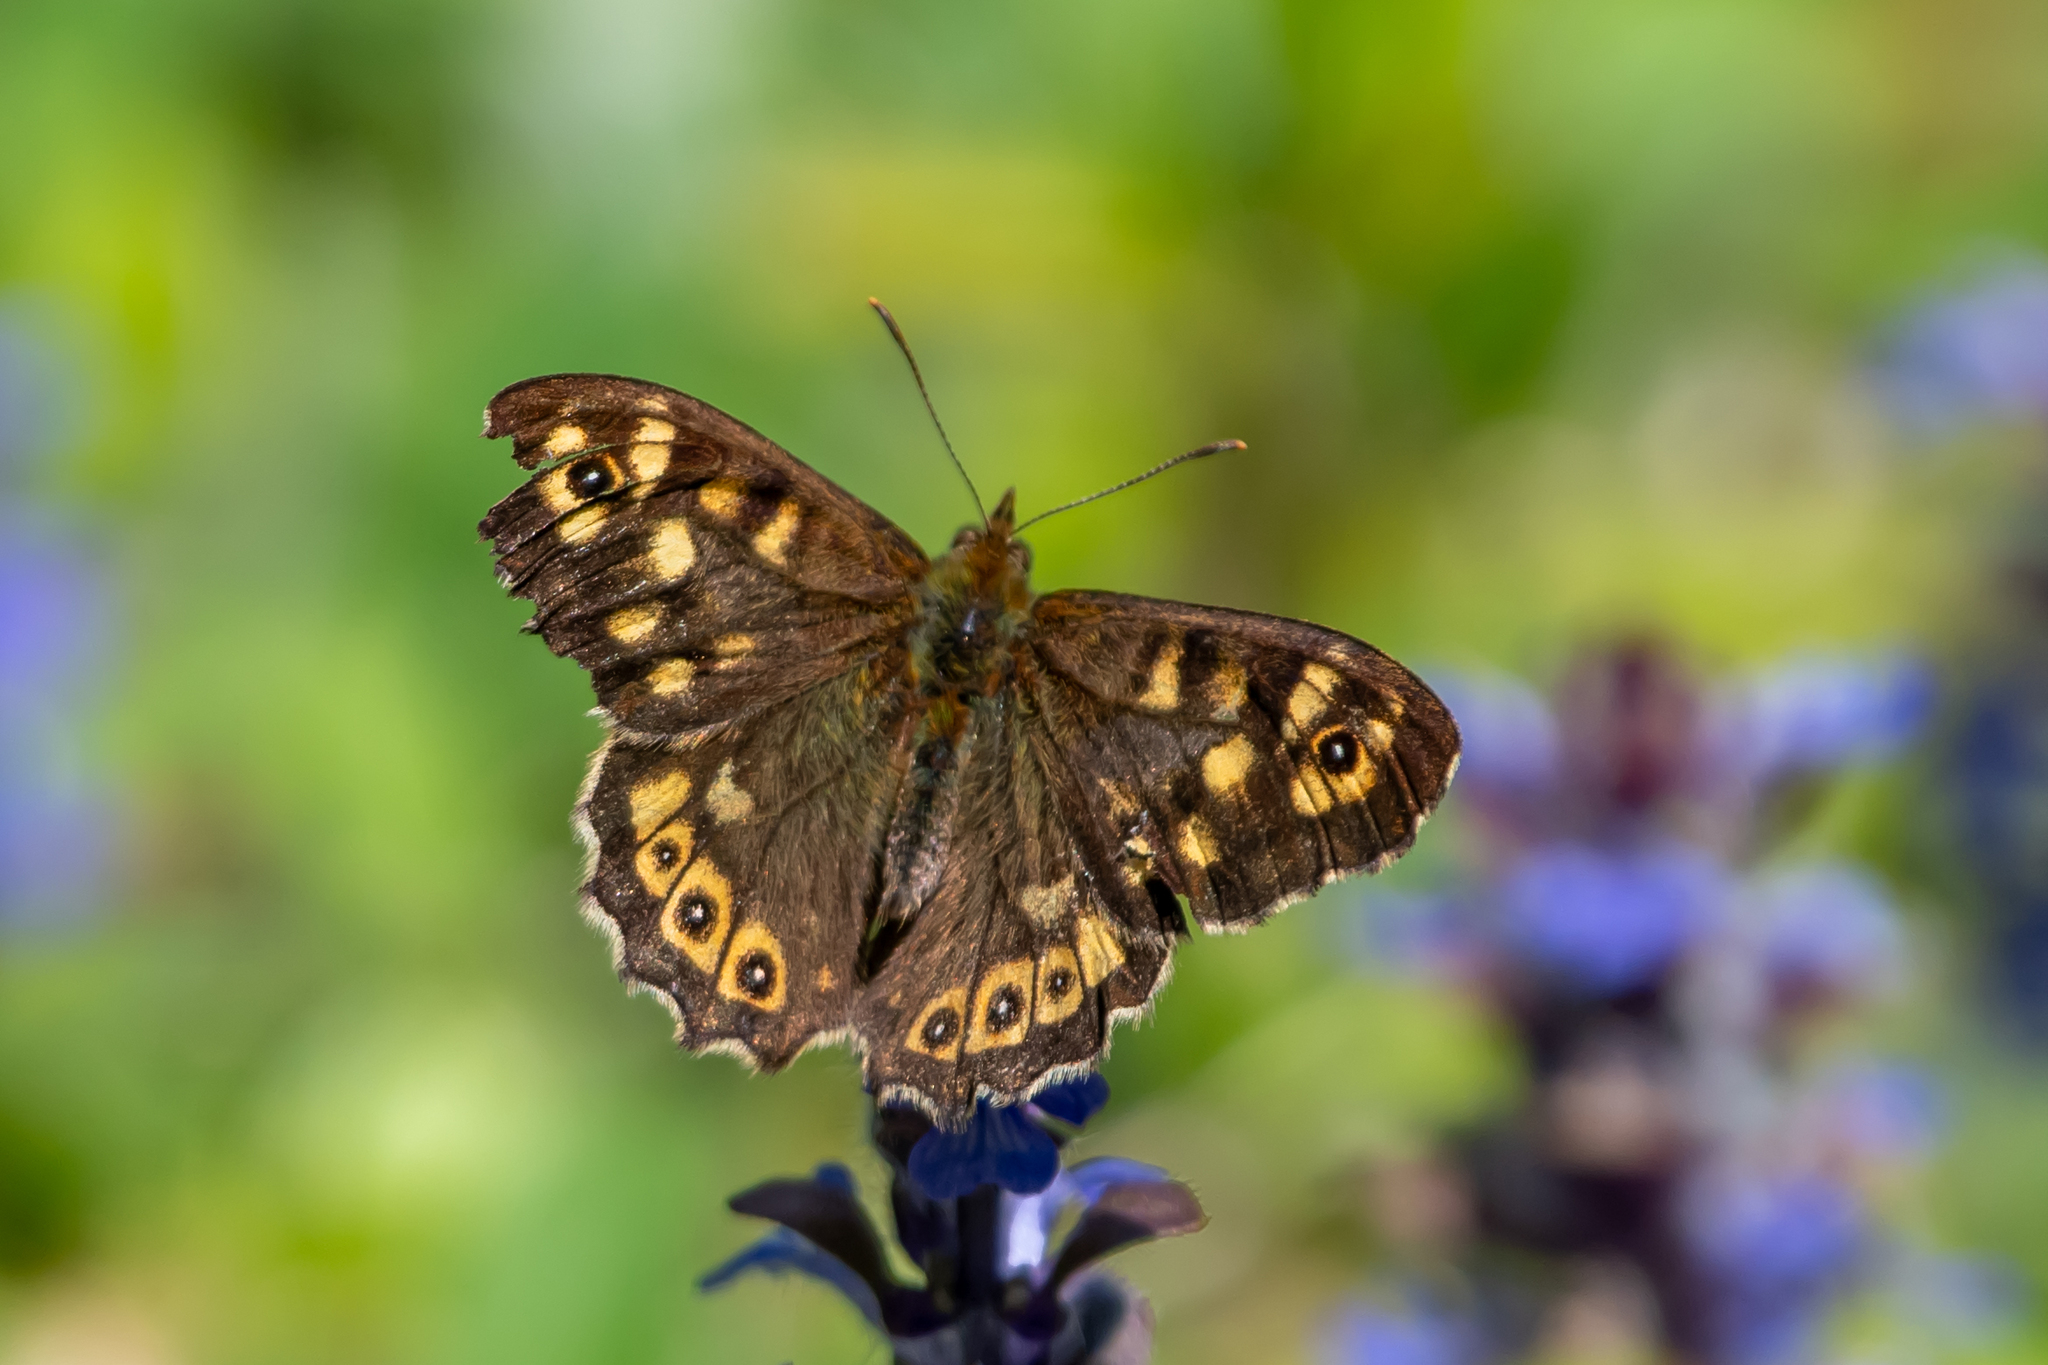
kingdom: Animalia
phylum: Arthropoda
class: Insecta
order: Lepidoptera
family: Nymphalidae
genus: Pararge
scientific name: Pararge aegeria
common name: Speckled wood
